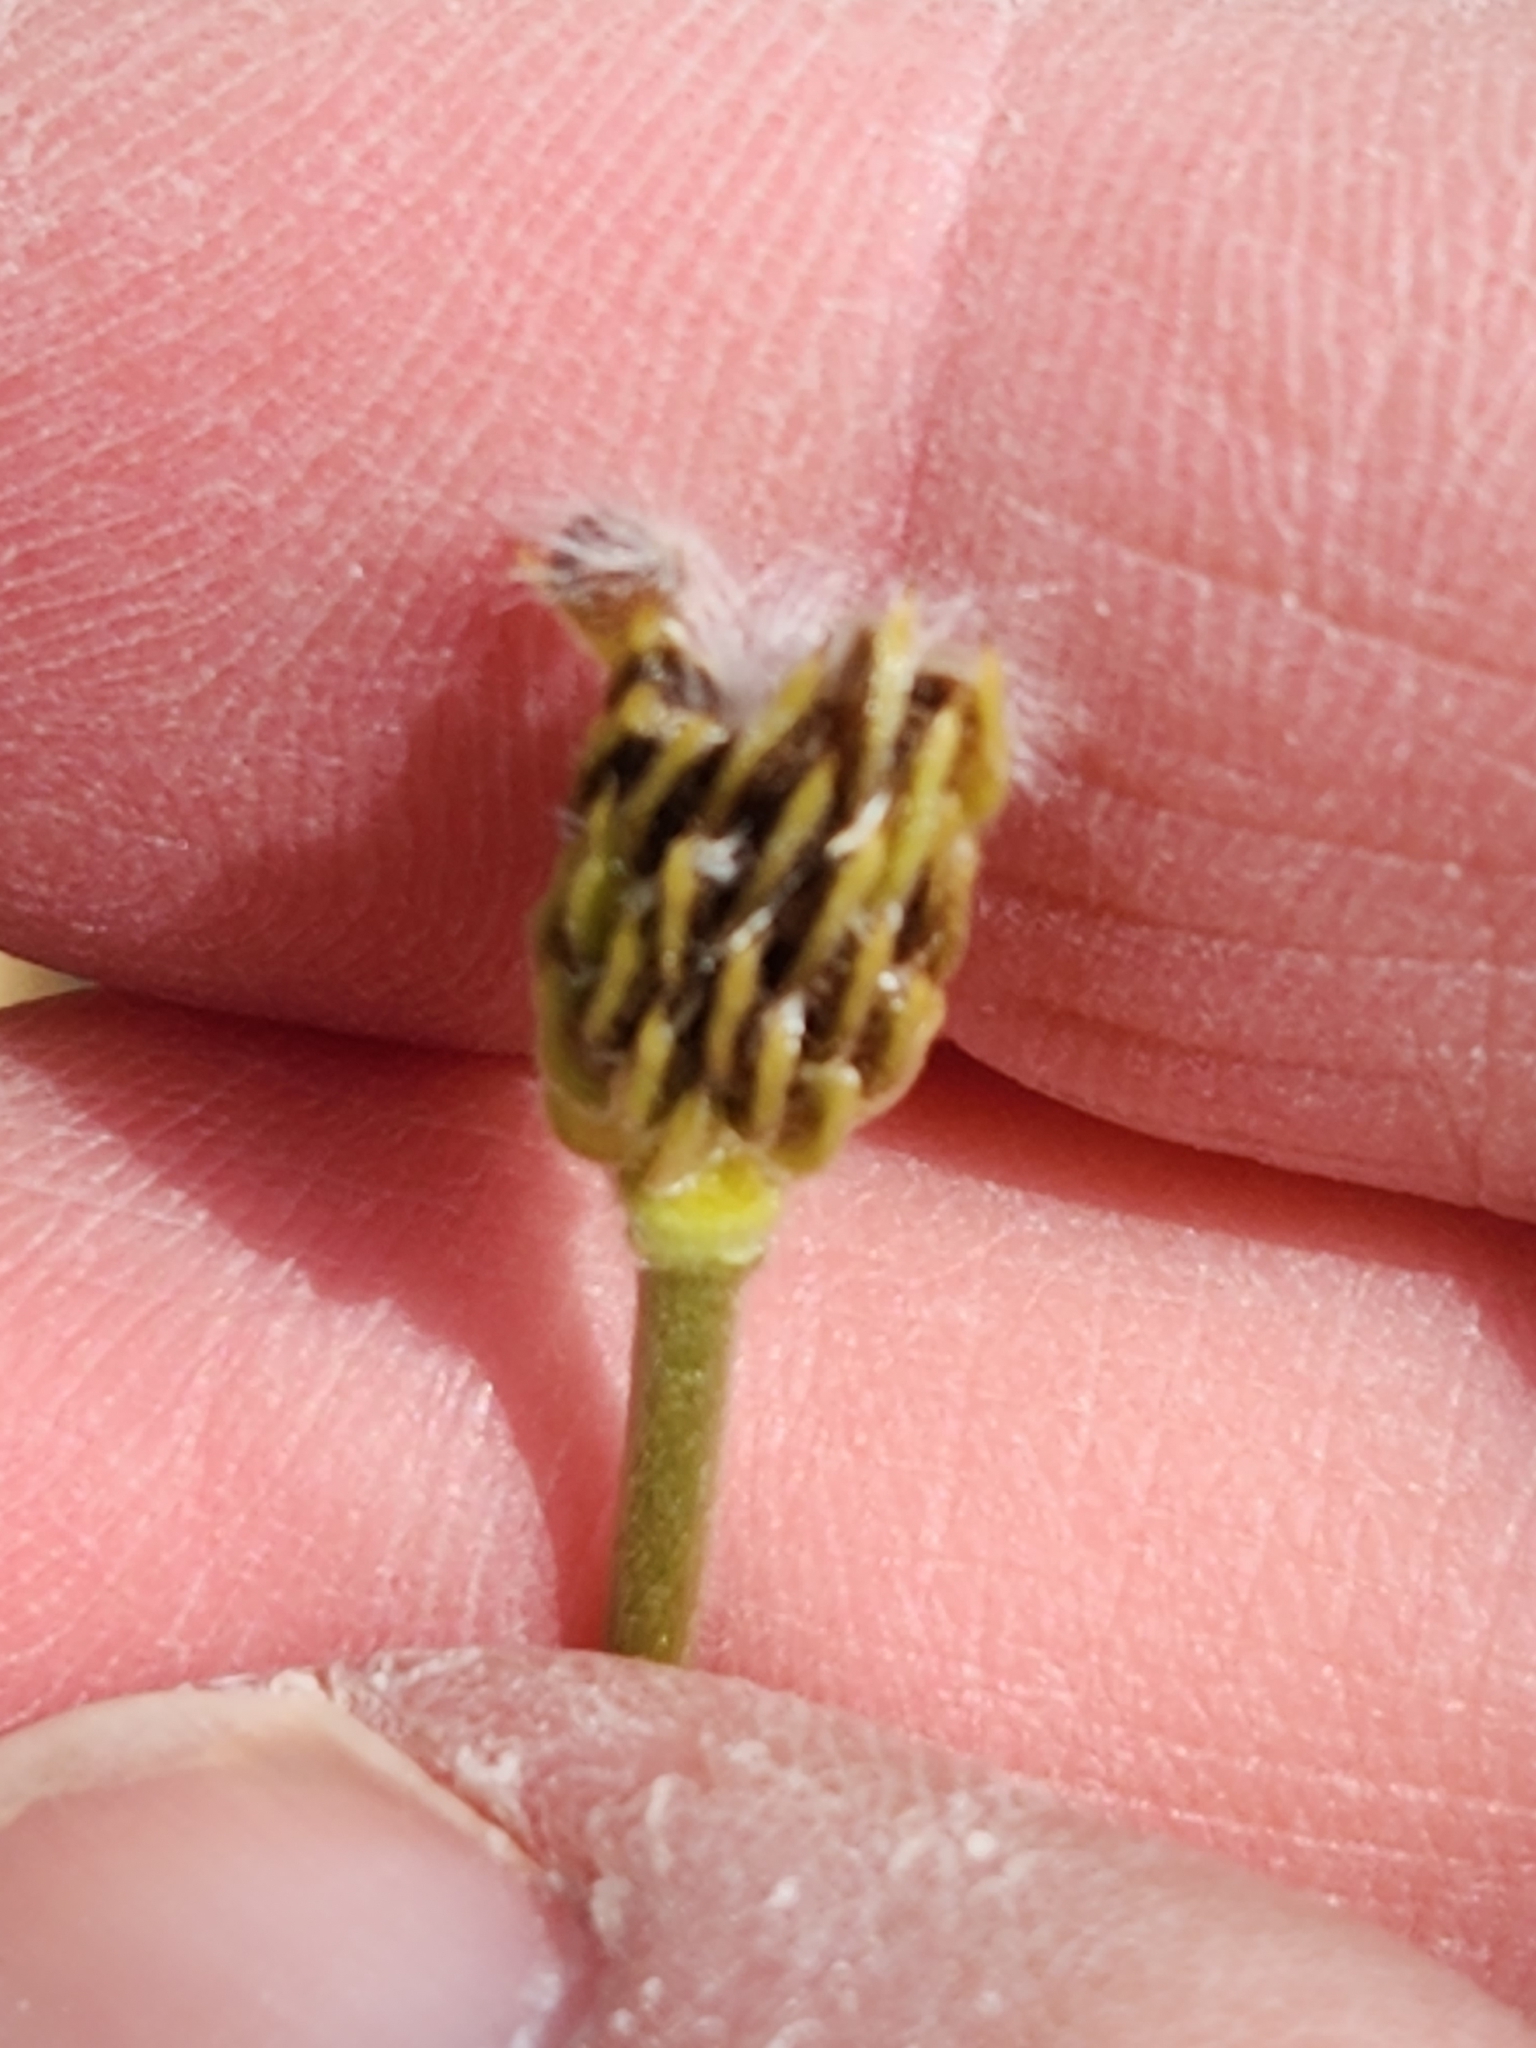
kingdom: Plantae
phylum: Tracheophyta
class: Magnoliopsida
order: Ranunculales
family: Ranunculaceae
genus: Anemone
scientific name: Anemone edwardsiana
